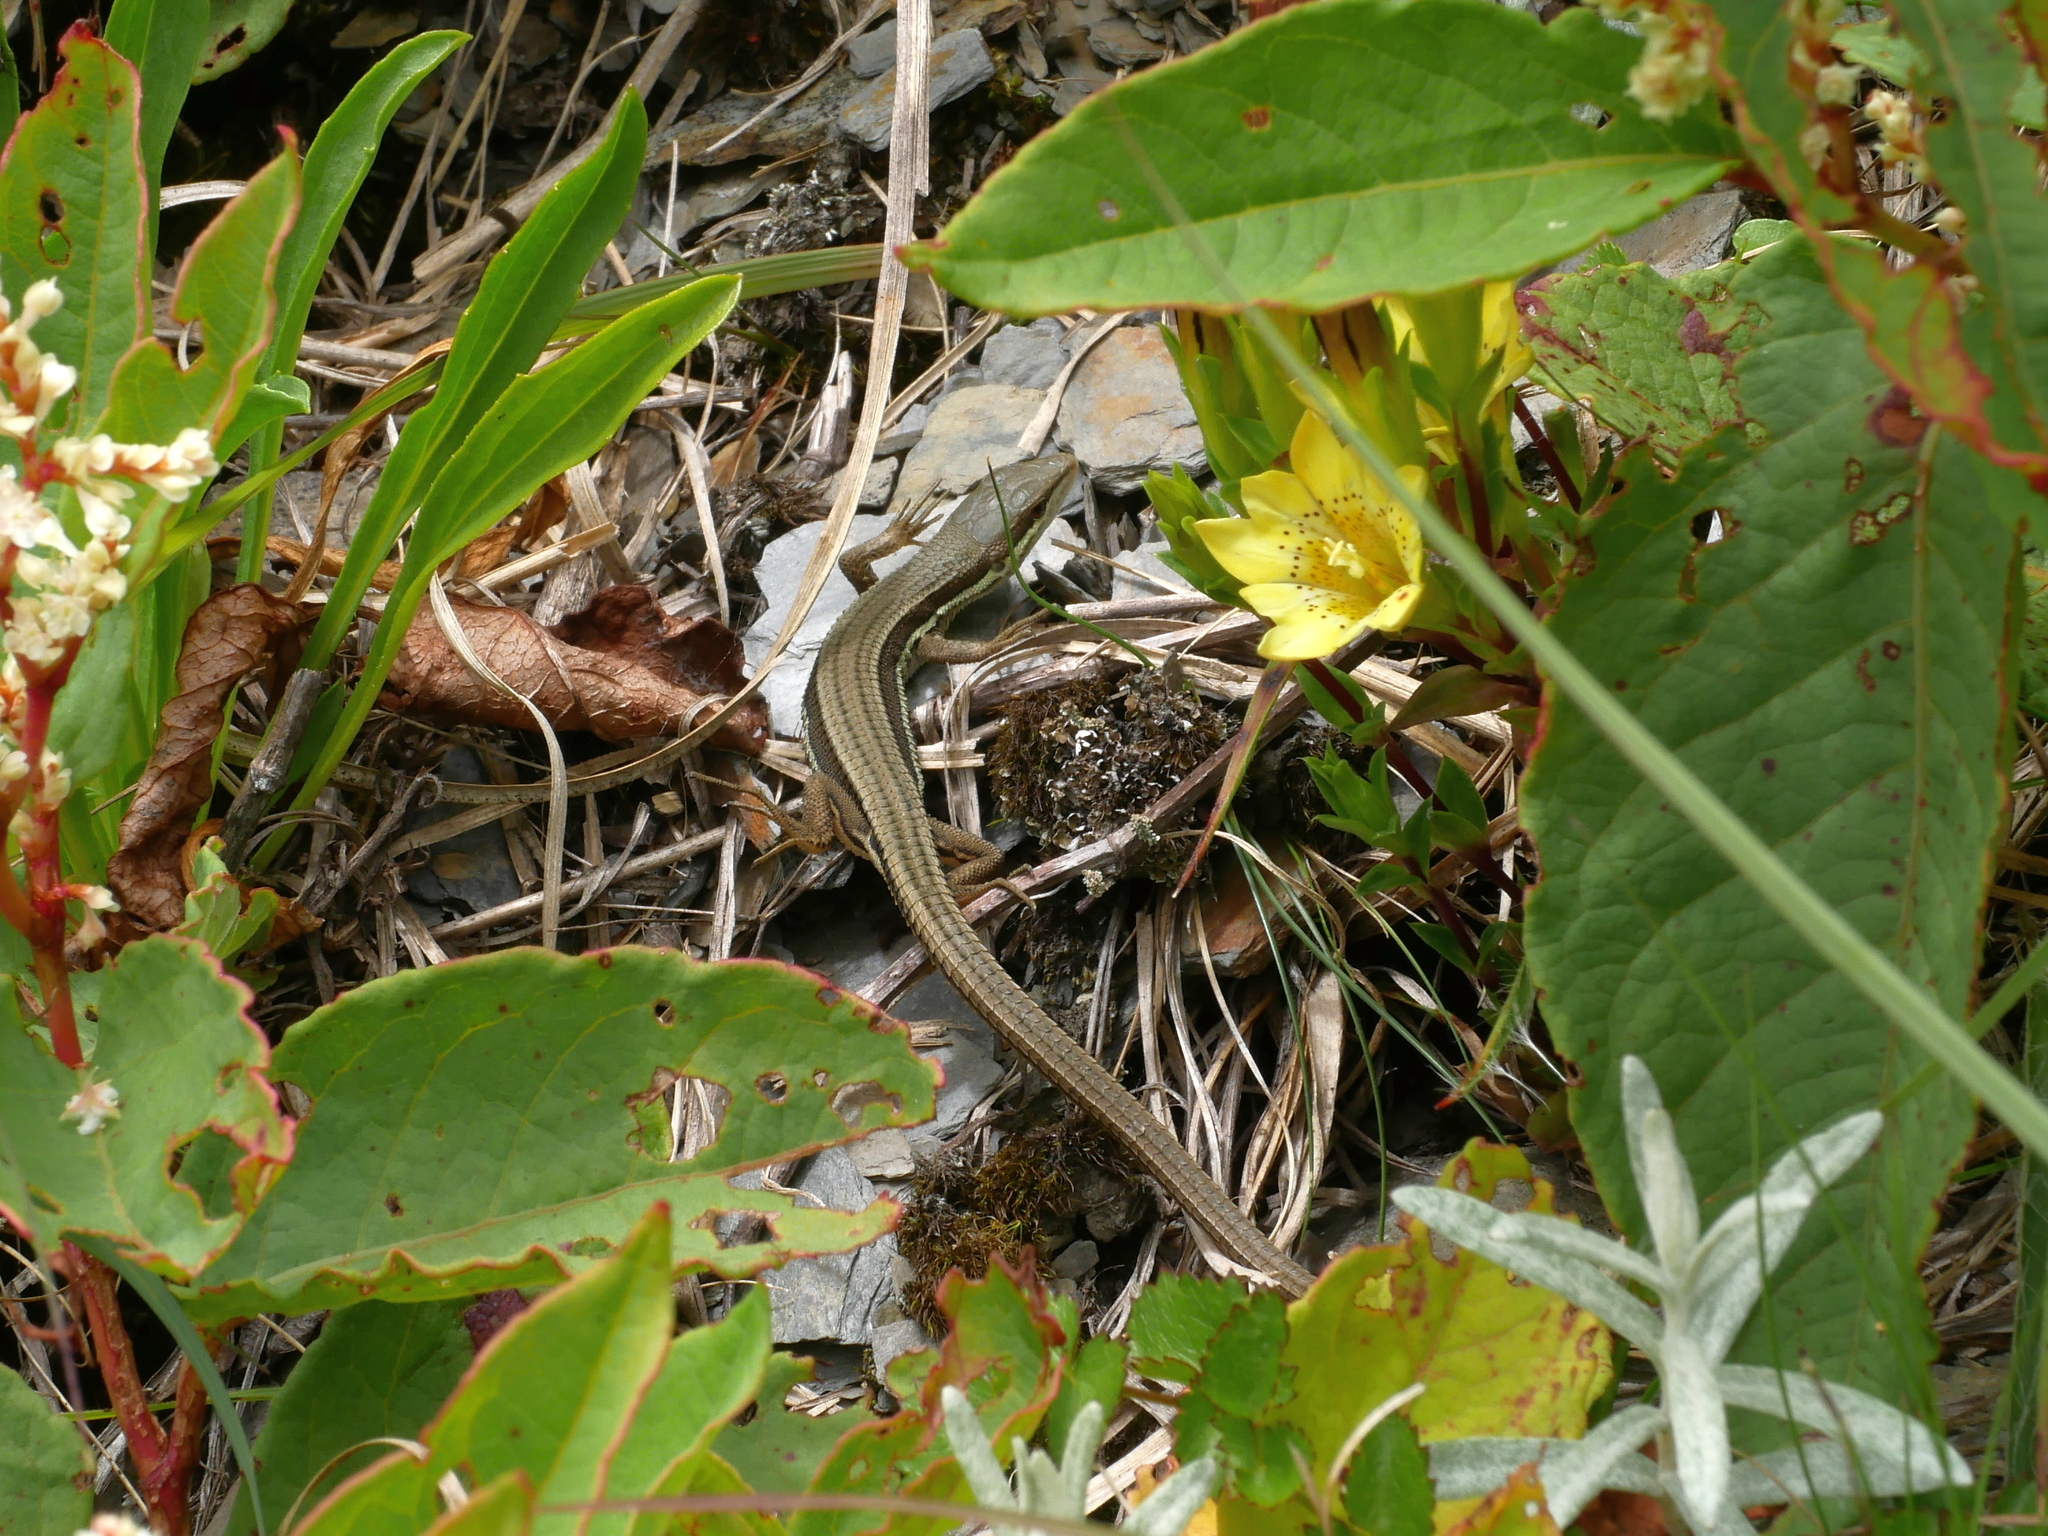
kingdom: Animalia
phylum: Chordata
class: Squamata
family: Lacertidae
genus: Takydromus
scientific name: Takydromus hsuehshanensis
